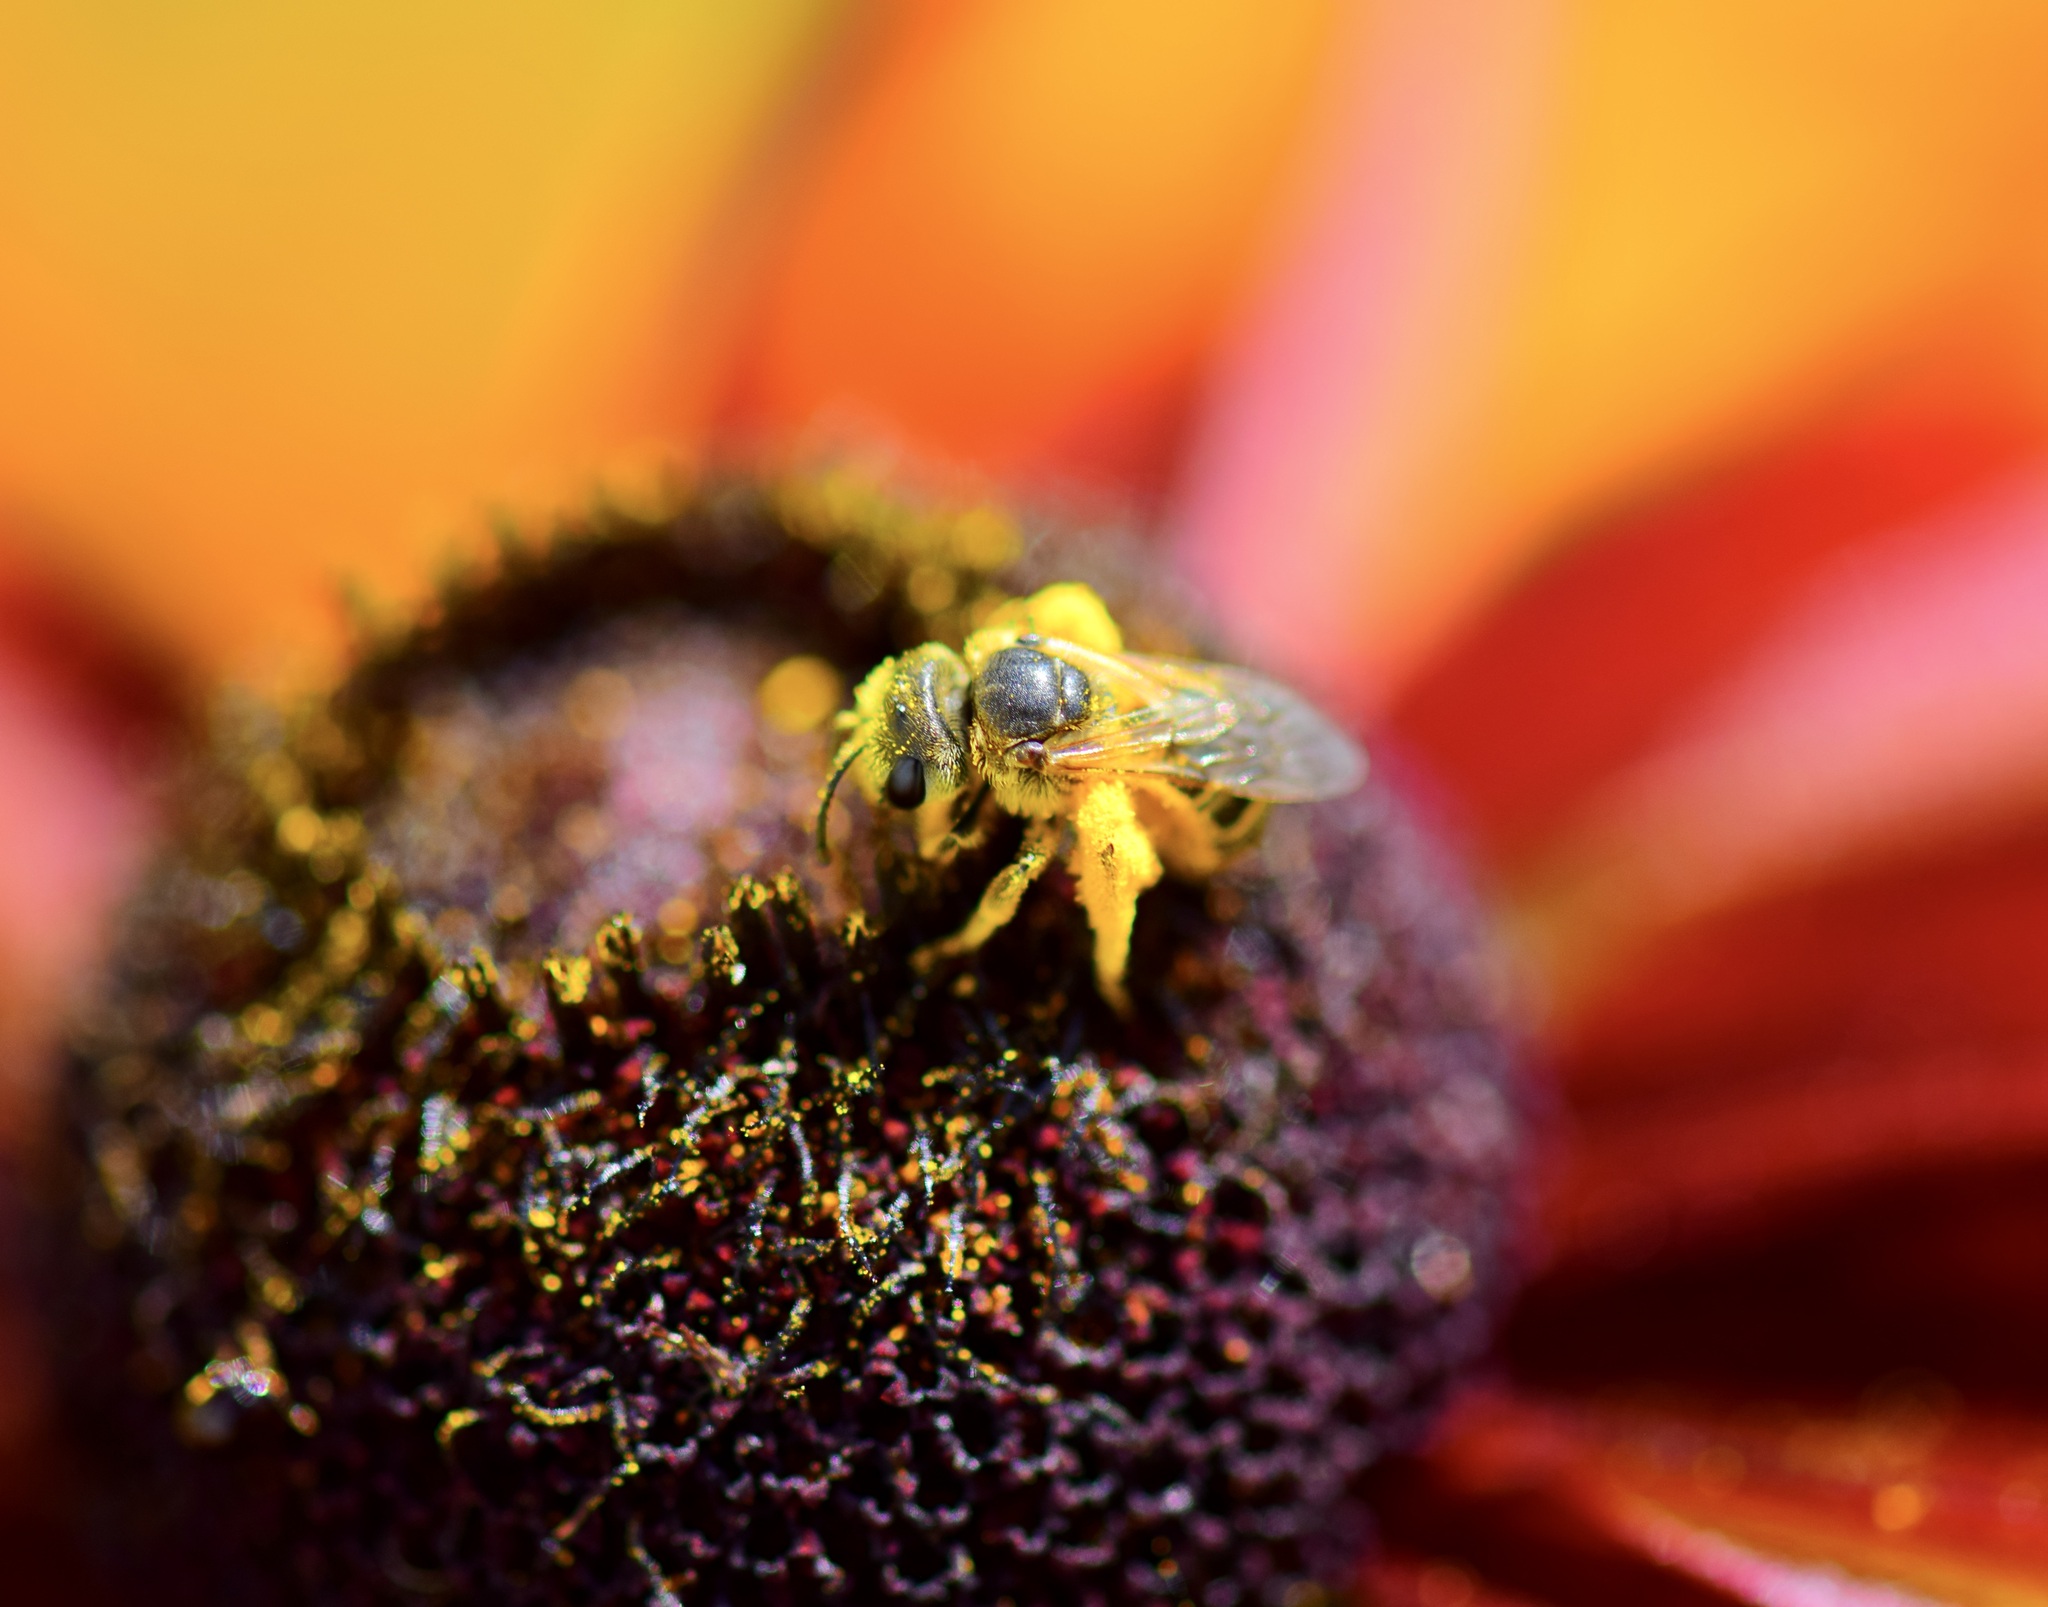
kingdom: Animalia
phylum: Arthropoda
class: Insecta
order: Hymenoptera
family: Halictidae
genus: Halictus
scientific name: Halictus ligatus
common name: Ligated furrow bee
